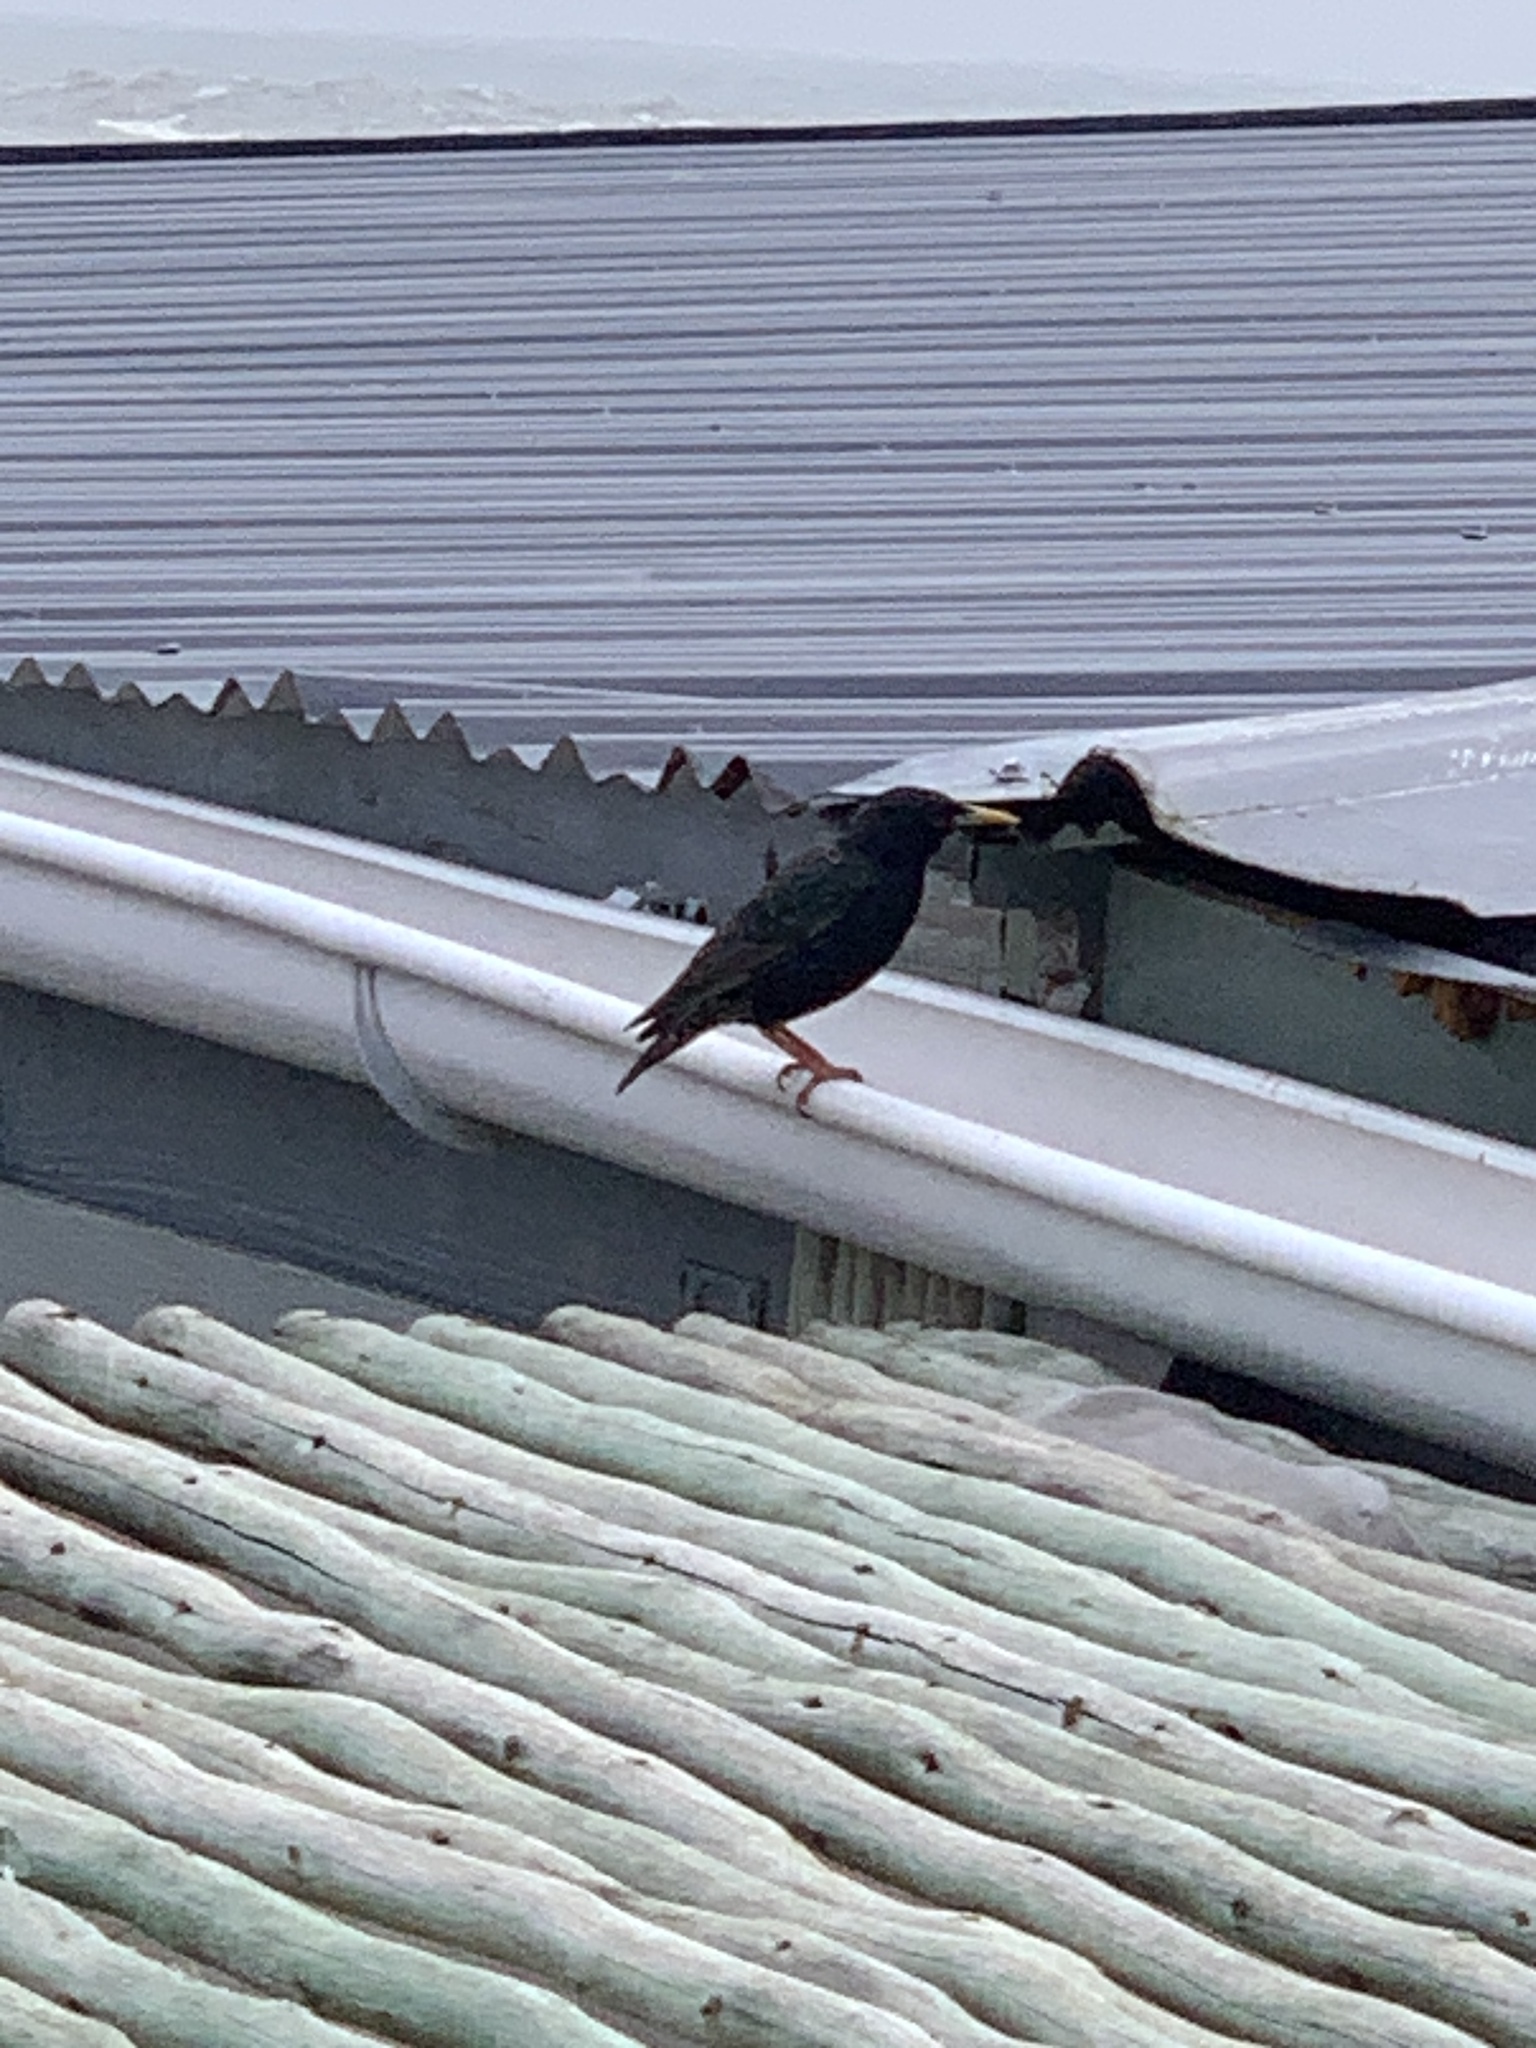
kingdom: Animalia
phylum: Chordata
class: Aves
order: Passeriformes
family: Sturnidae
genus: Sturnus
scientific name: Sturnus vulgaris
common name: Common starling
